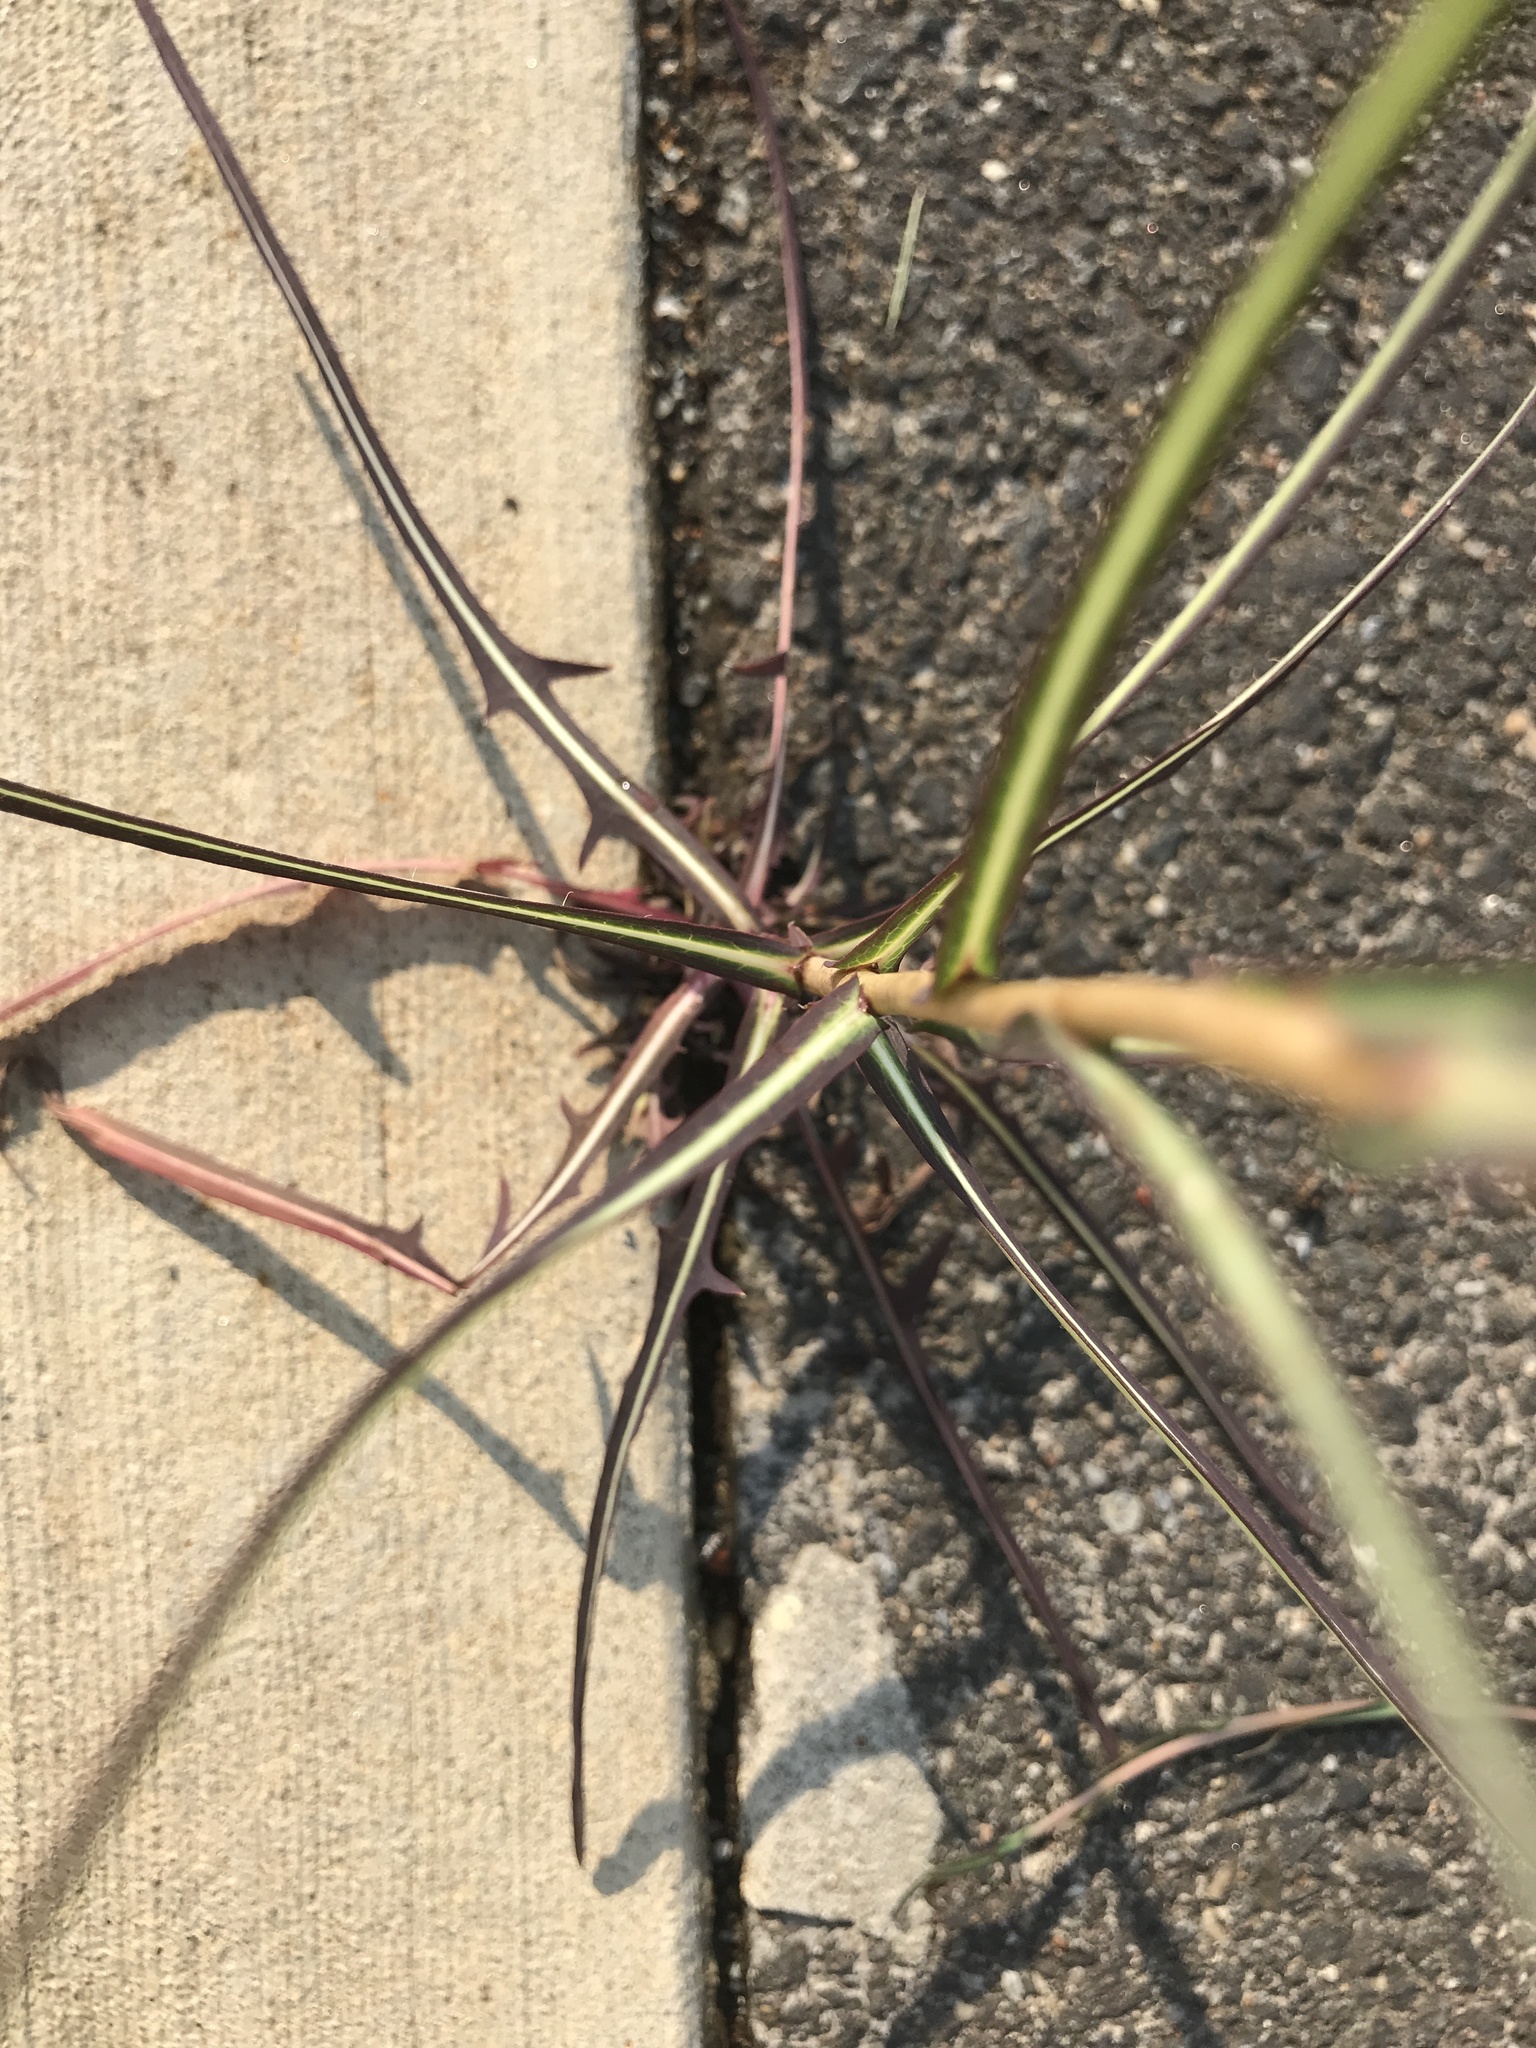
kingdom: Plantae
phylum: Tracheophyta
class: Magnoliopsida
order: Asterales
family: Asteraceae
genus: Lactuca
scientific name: Lactuca saligna
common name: Wild lettuce
